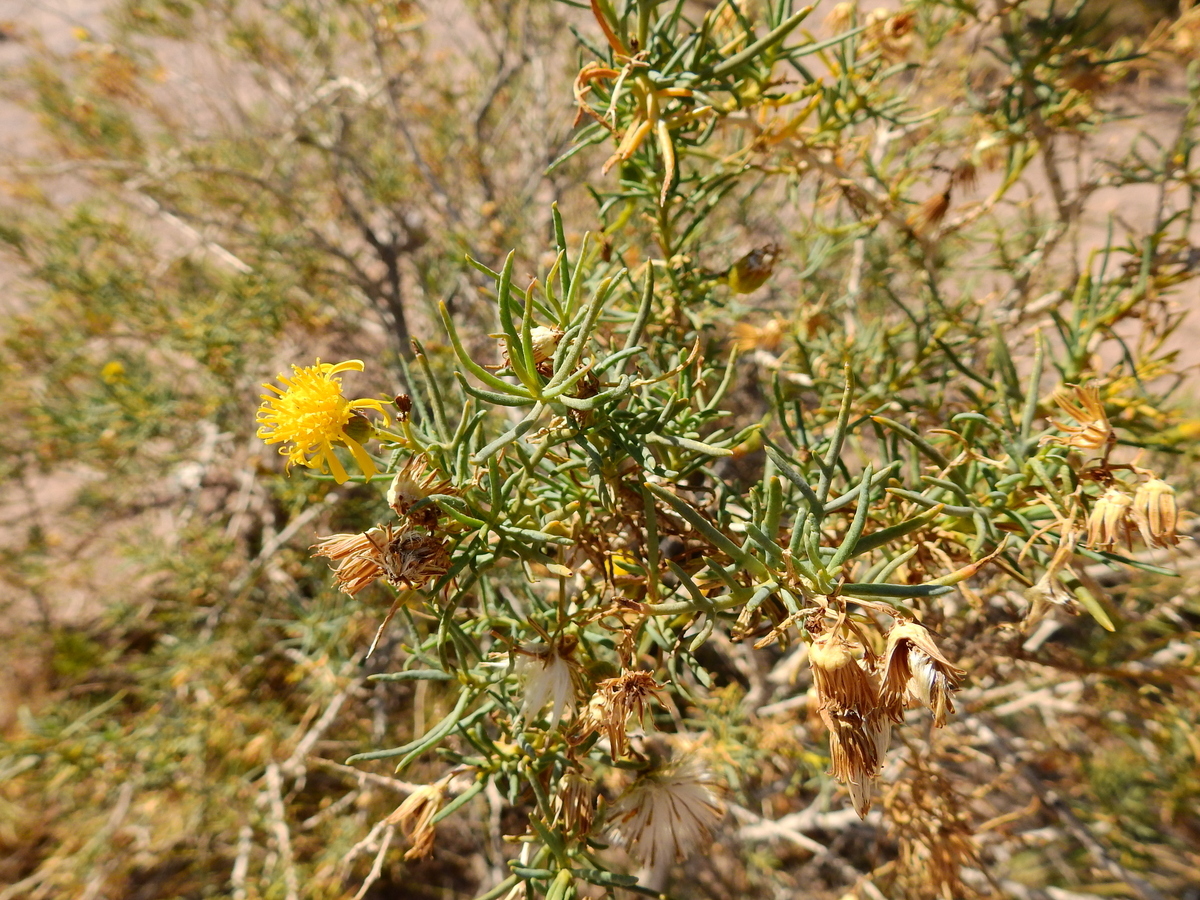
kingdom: Plantae
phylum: Tracheophyta
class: Magnoliopsida
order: Asterales
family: Asteraceae
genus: Senecio
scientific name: Senecio subulatus
